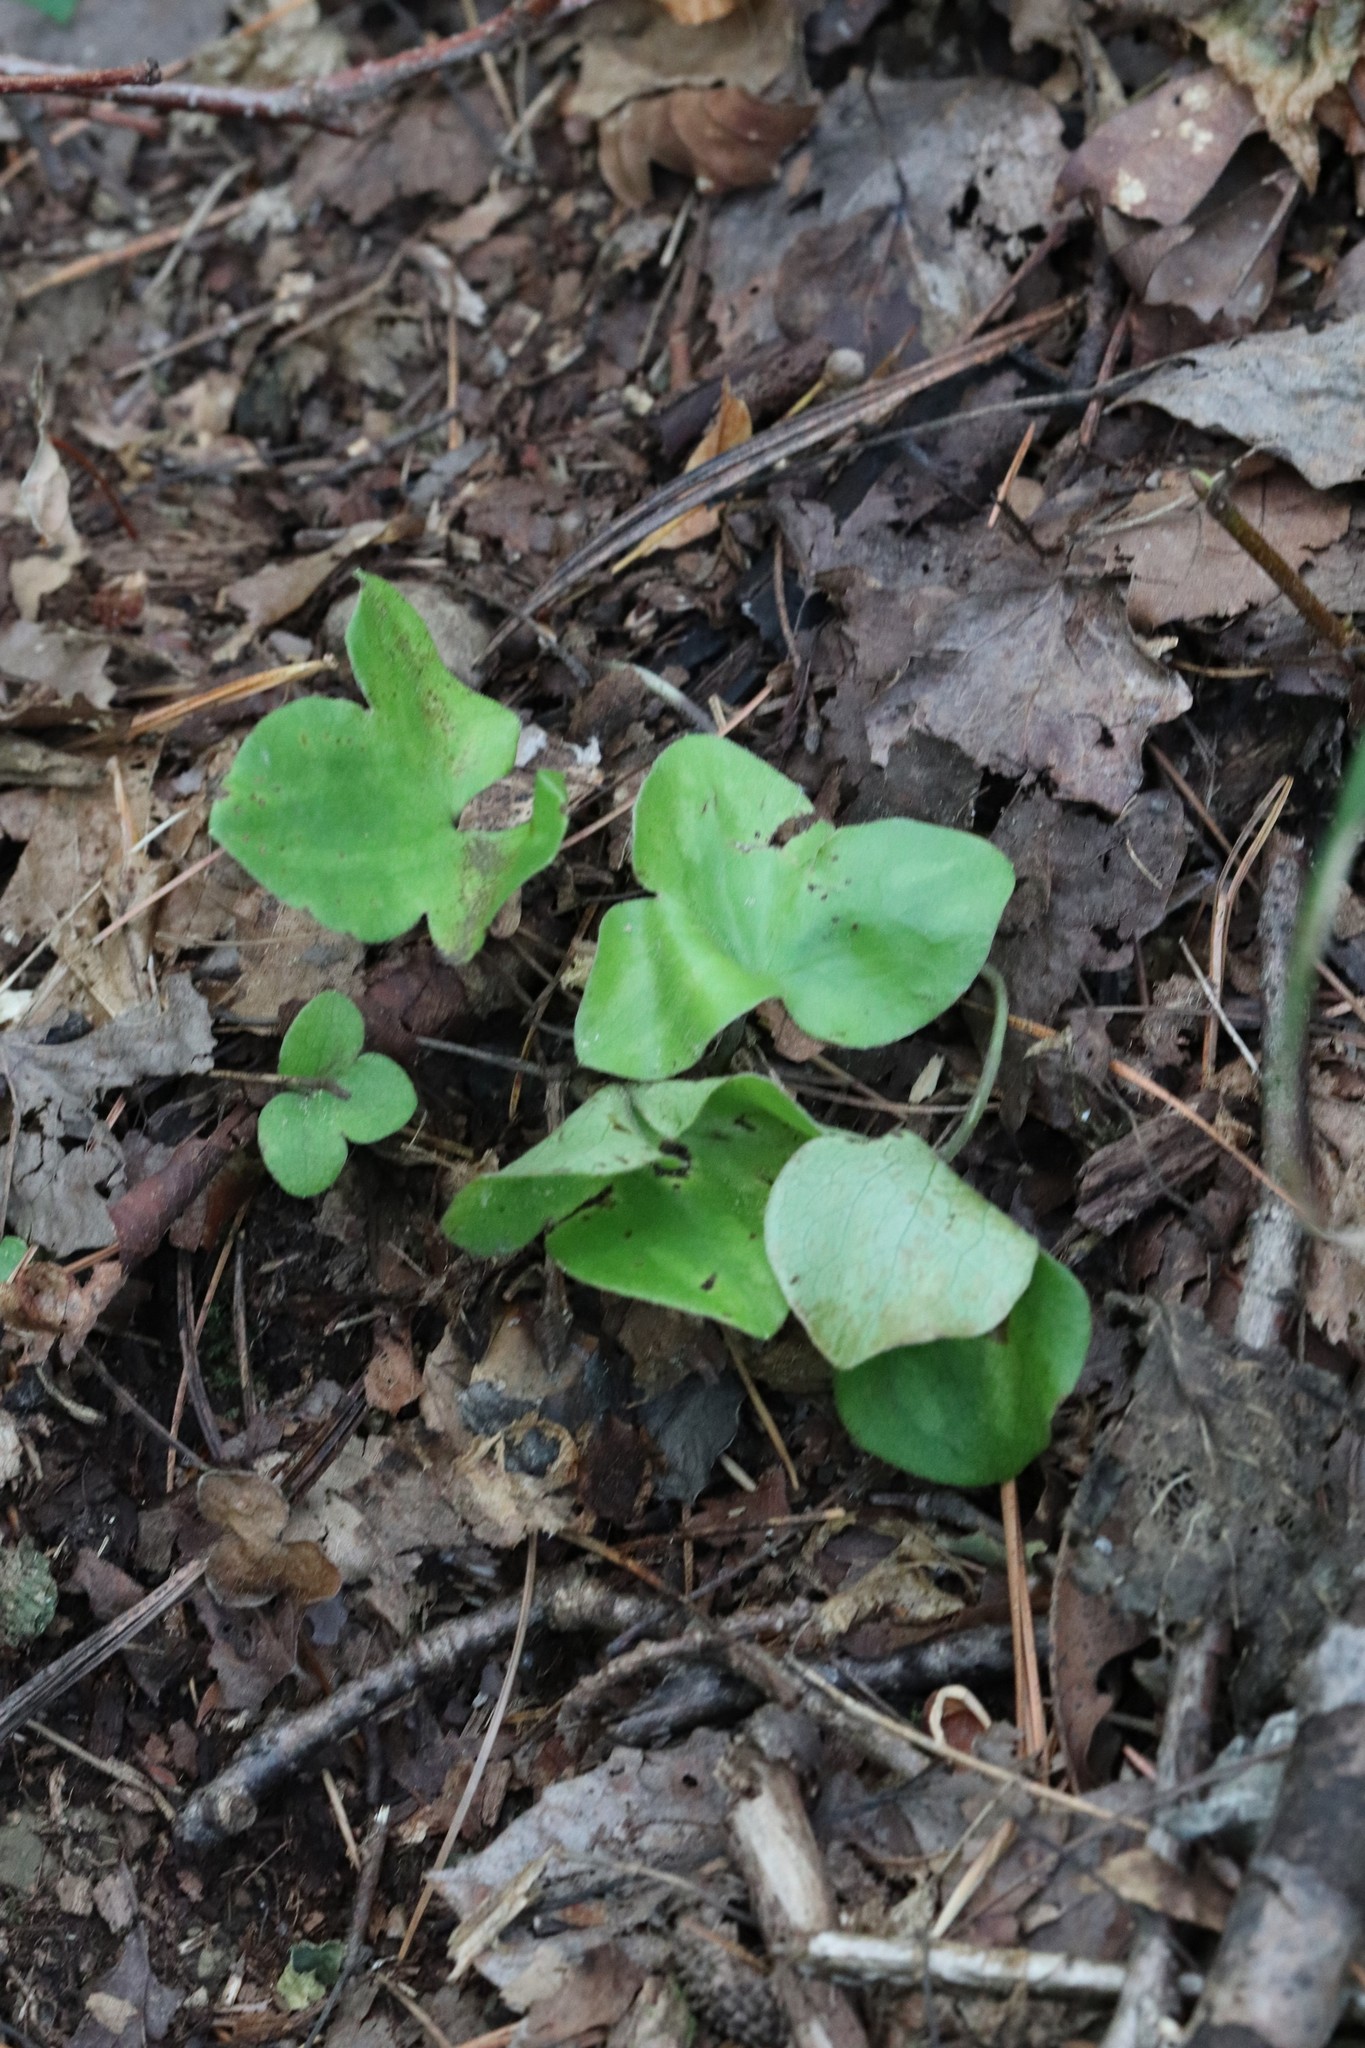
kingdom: Plantae
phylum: Tracheophyta
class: Magnoliopsida
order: Ranunculales
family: Ranunculaceae
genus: Hepatica
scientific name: Hepatica asiatica
